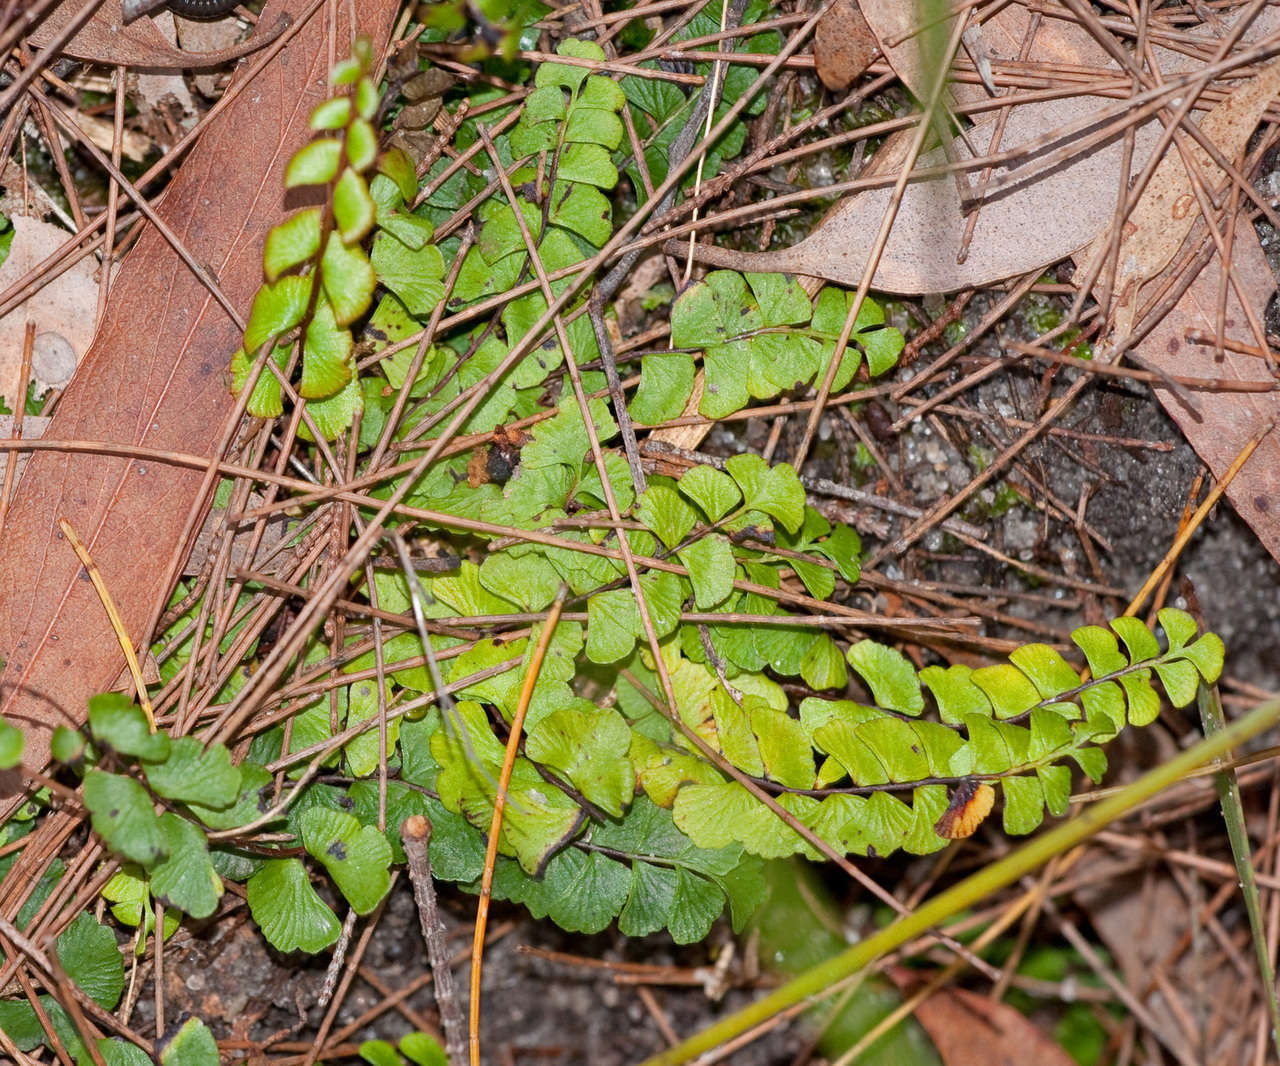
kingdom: Plantae
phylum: Tracheophyta
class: Polypodiopsida
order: Polypodiales
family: Lindsaeaceae
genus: Lindsaea
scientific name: Lindsaea linearis
